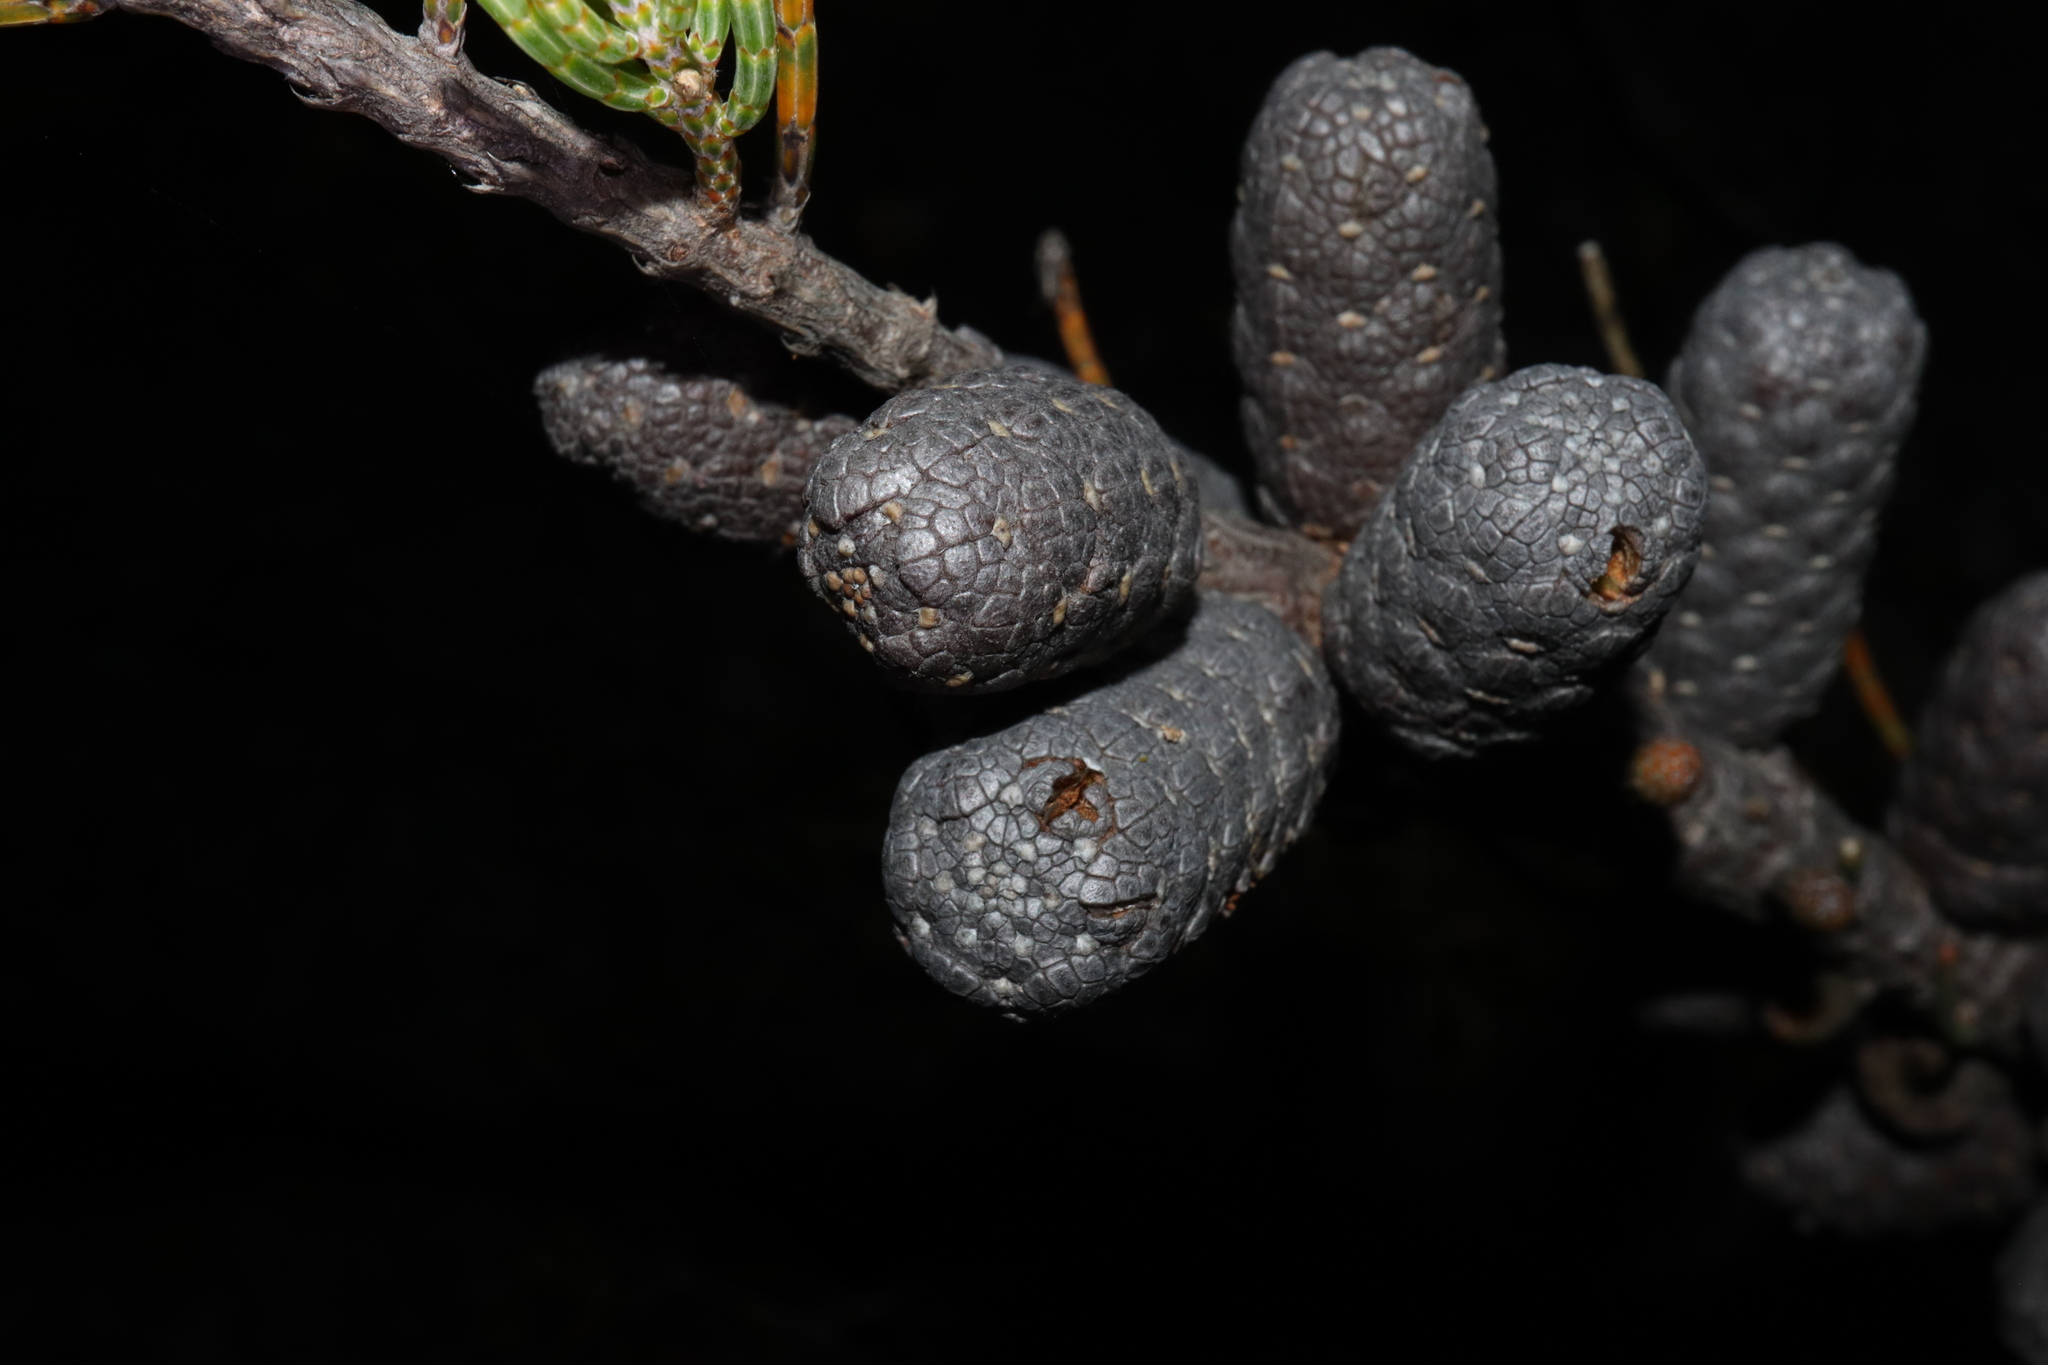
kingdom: Plantae
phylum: Tracheophyta
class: Magnoliopsida
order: Fagales
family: Casuarinaceae
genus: Allocasuarina
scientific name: Allocasuarina humilis
